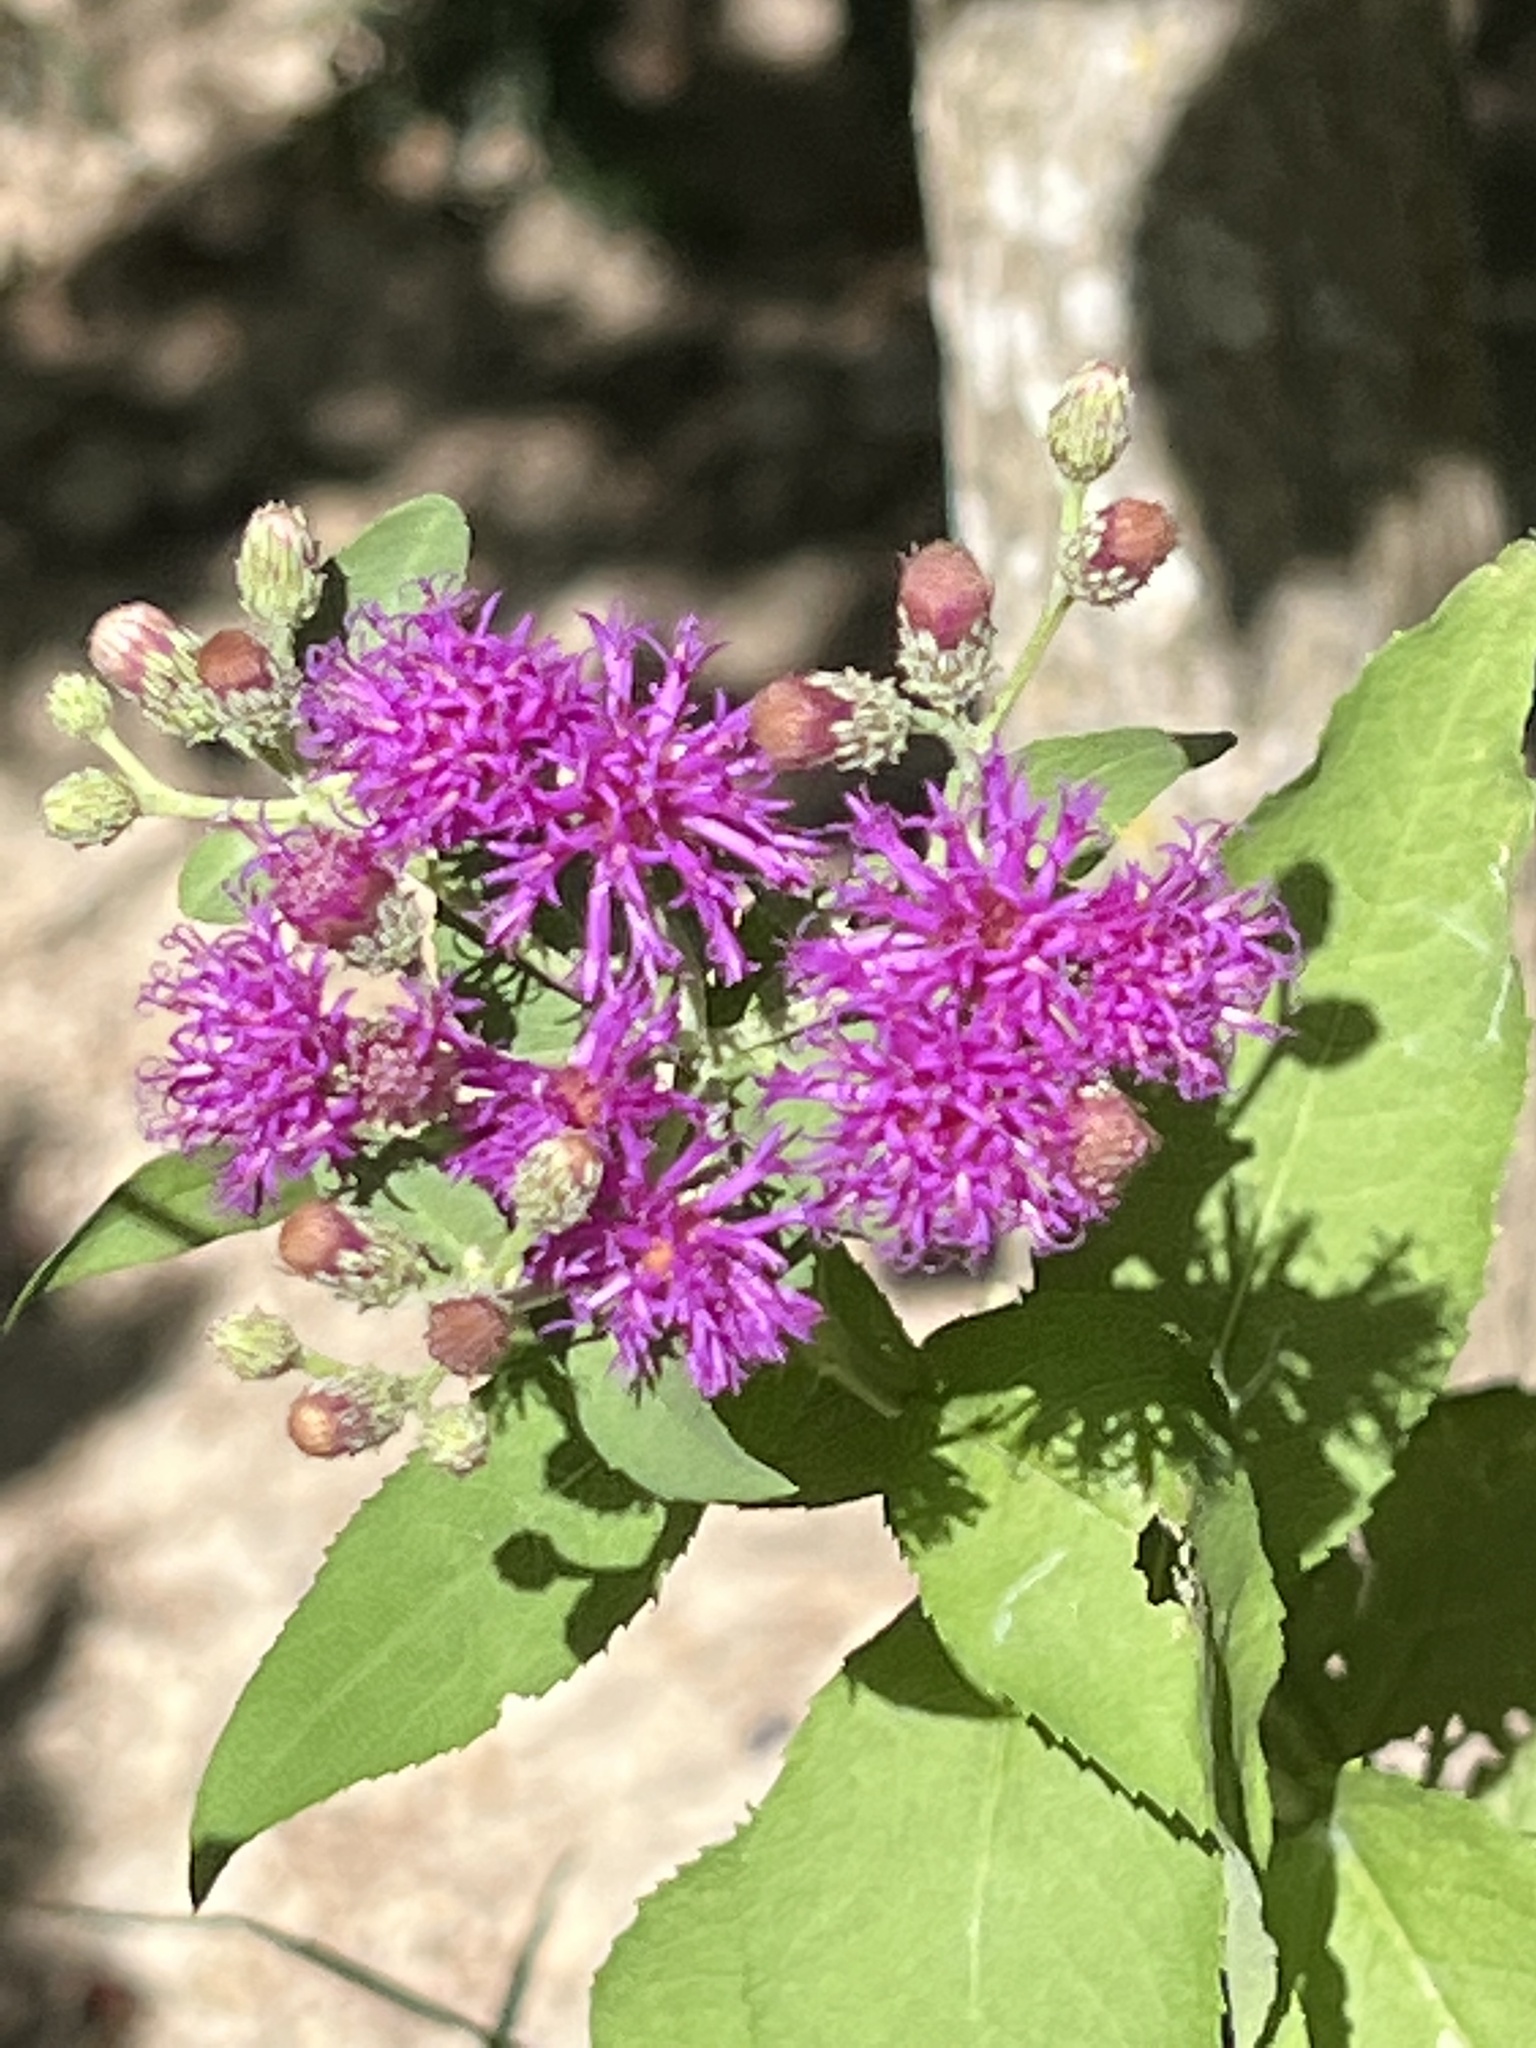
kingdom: Plantae
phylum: Tracheophyta
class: Magnoliopsida
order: Asterales
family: Asteraceae
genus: Vernonia
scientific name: Vernonia baldwinii
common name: Western ironweed
